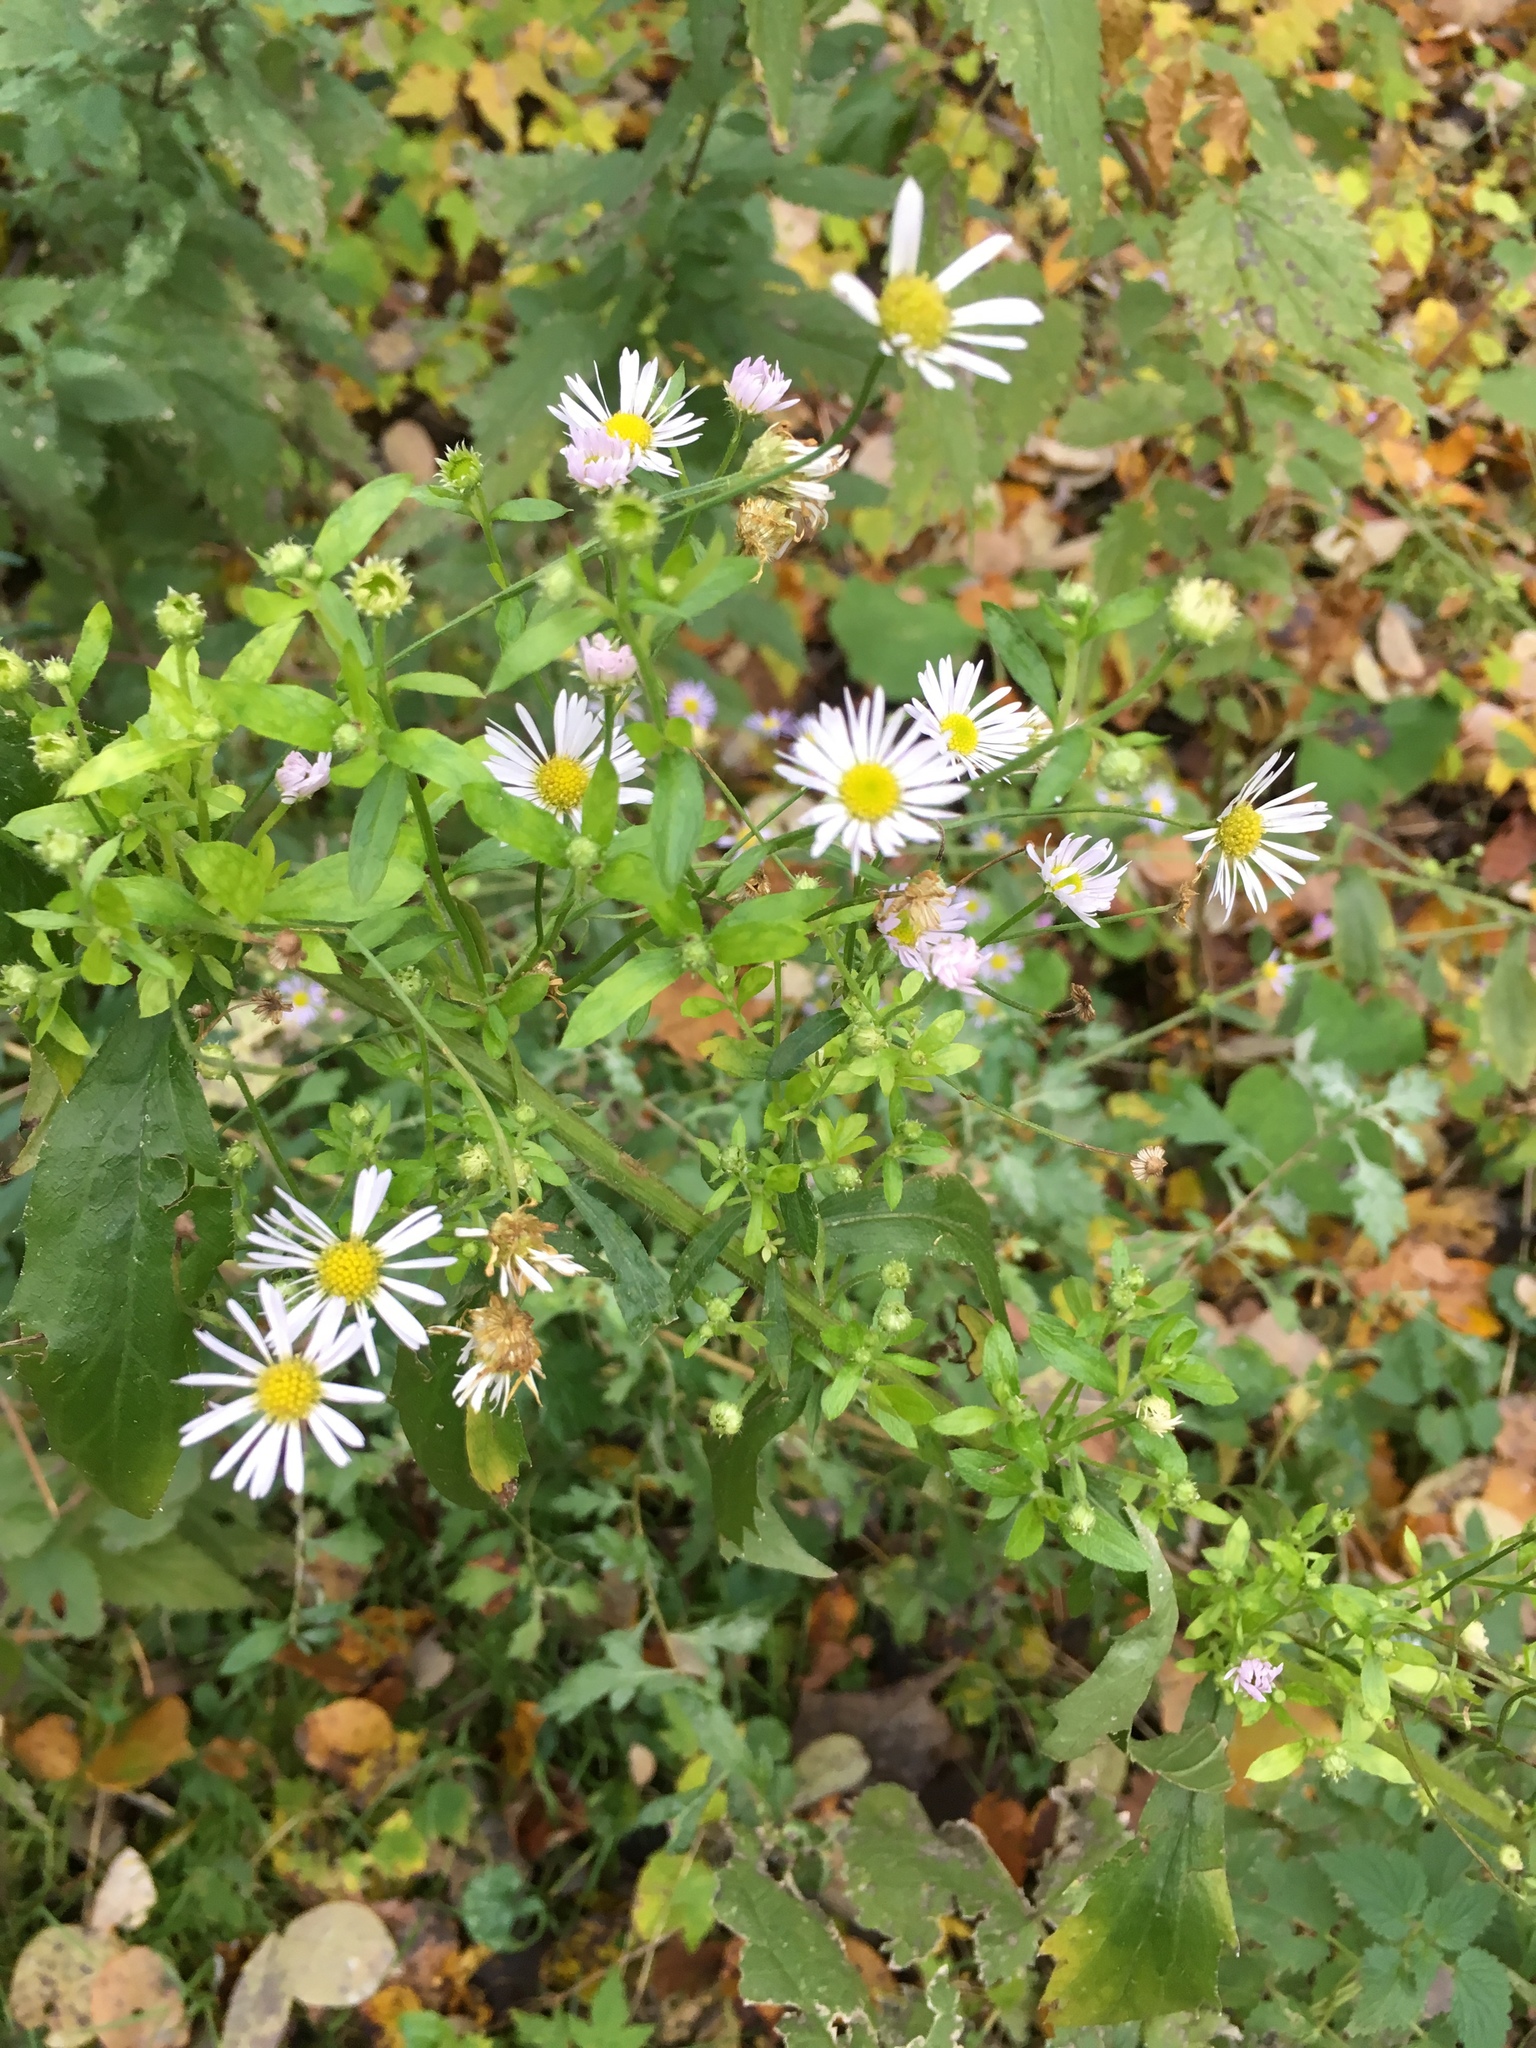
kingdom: Plantae
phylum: Tracheophyta
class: Magnoliopsida
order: Asterales
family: Asteraceae
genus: Erigeron
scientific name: Erigeron annuus
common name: Tall fleabane
